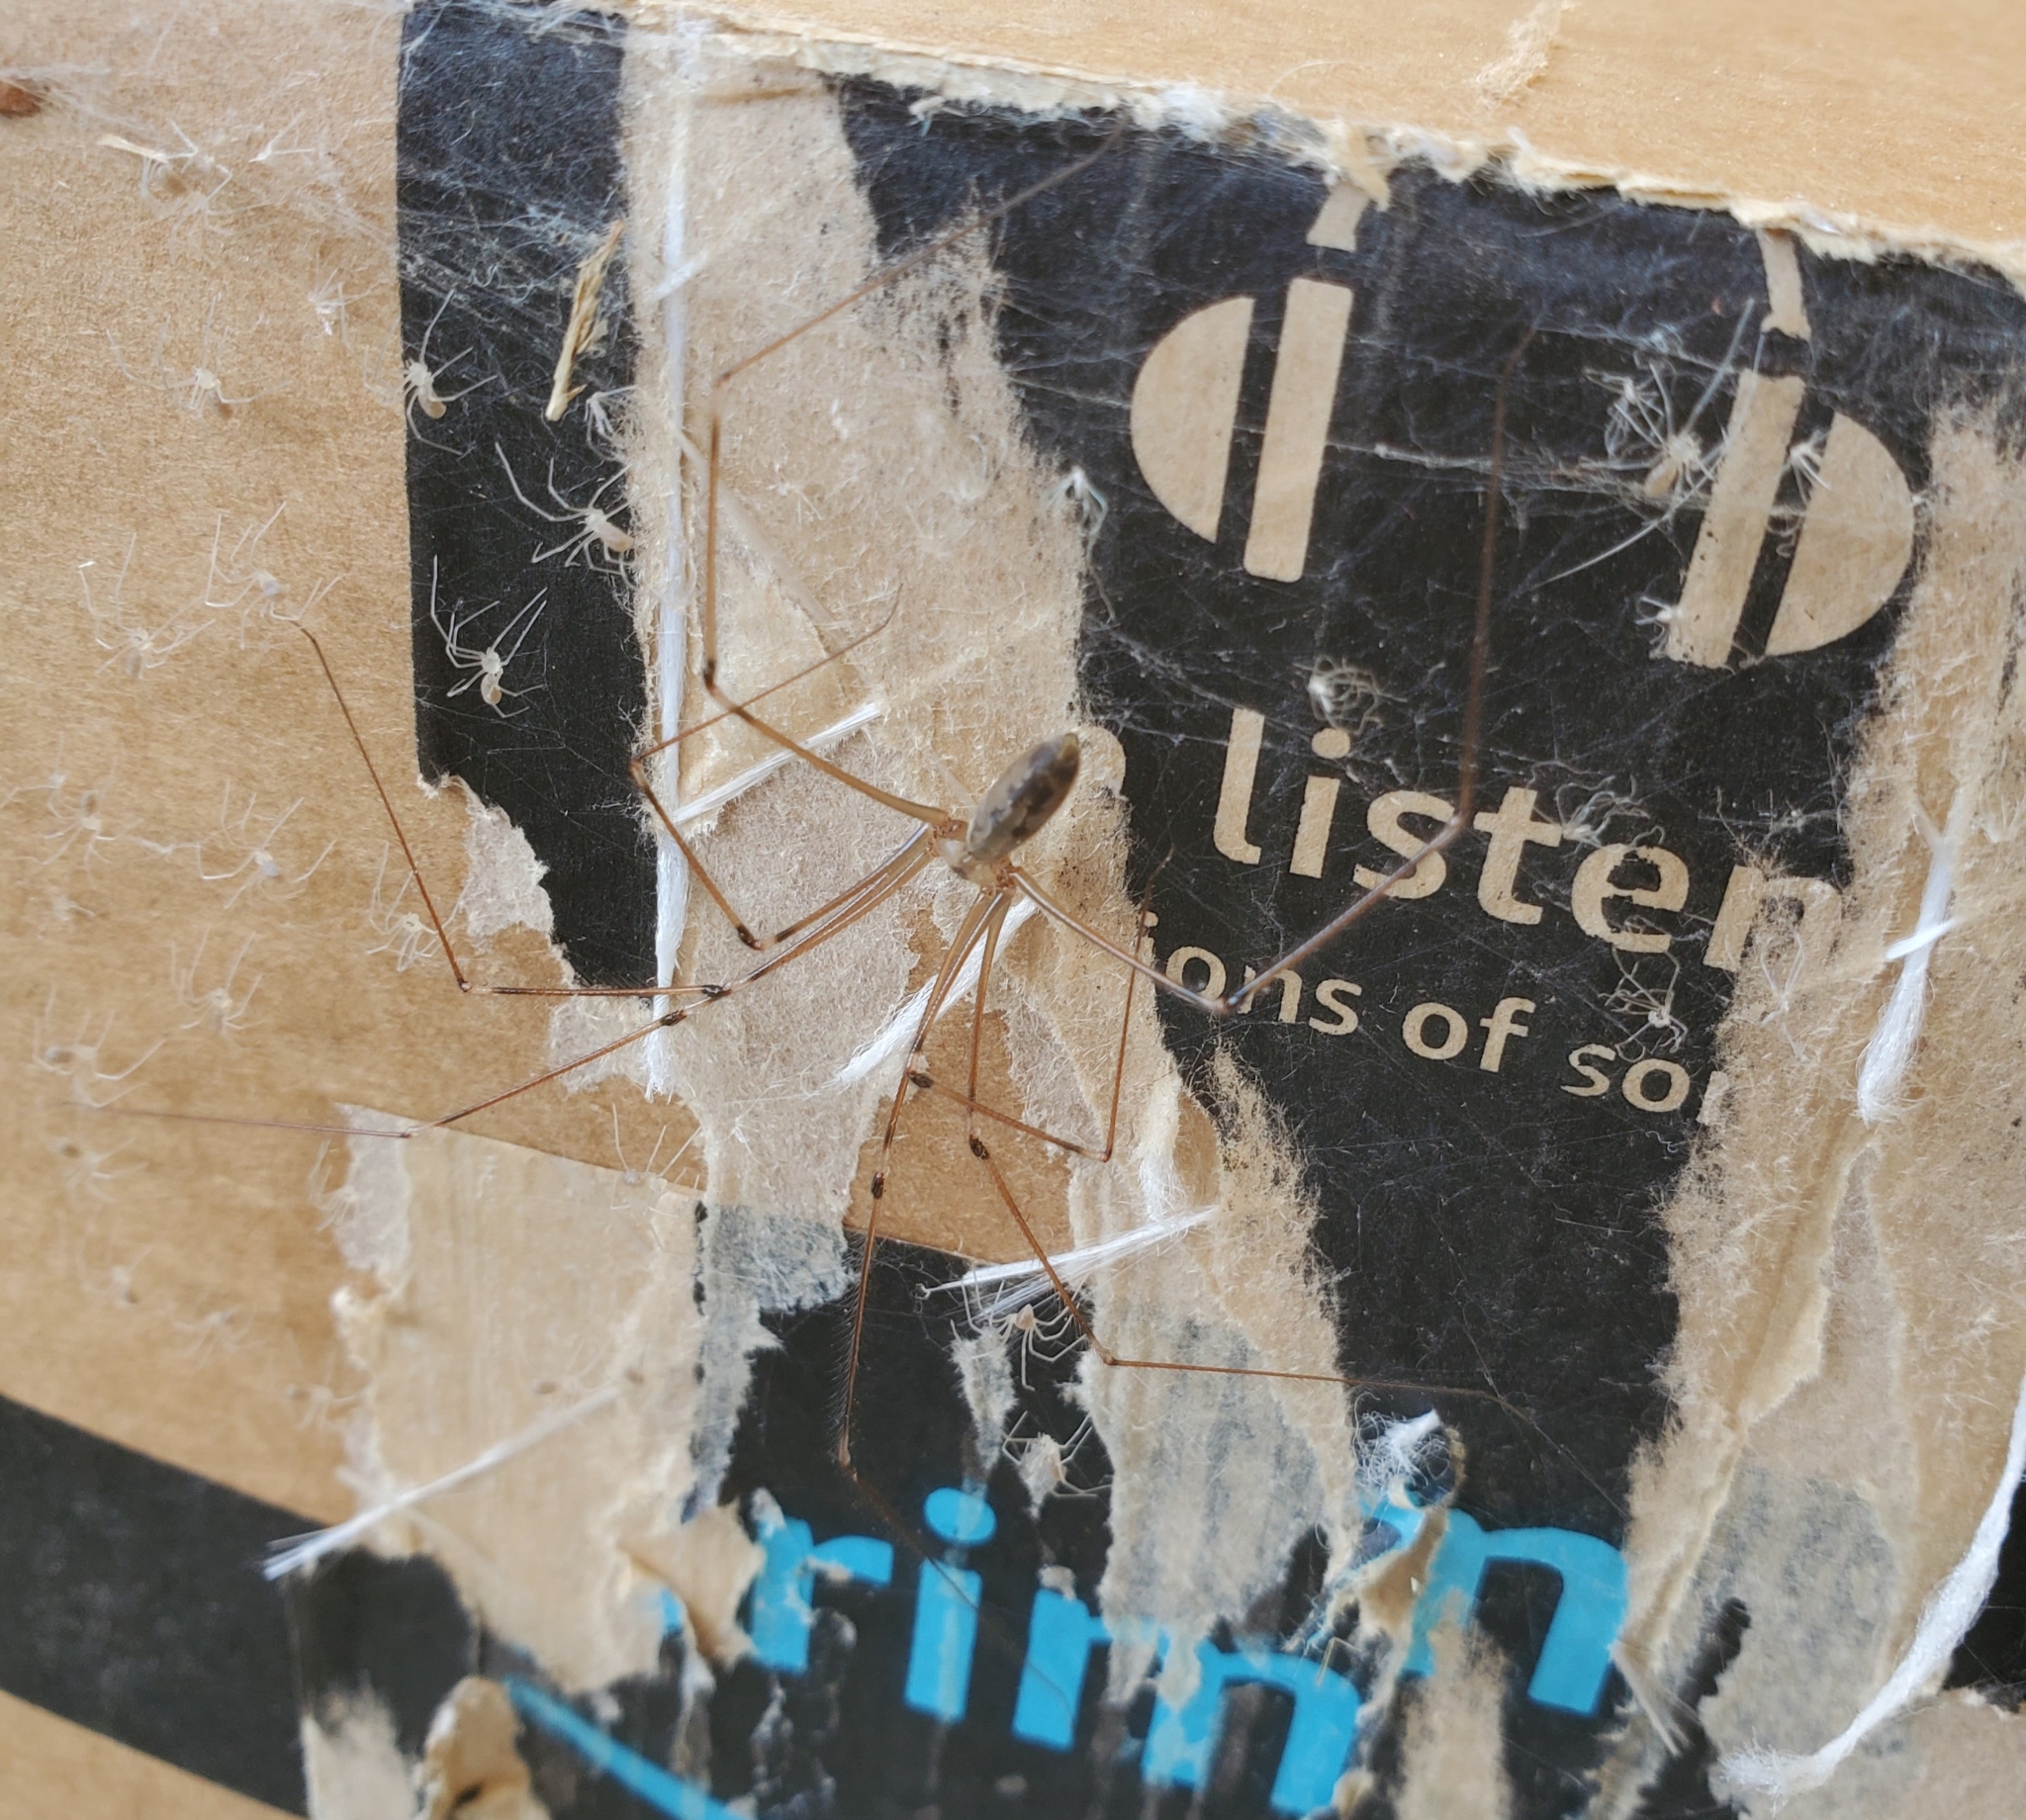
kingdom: Animalia
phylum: Arthropoda
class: Arachnida
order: Araneae
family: Pholcidae
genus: Pholcus
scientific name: Pholcus phalangioides
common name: Longbodied cellar spider
